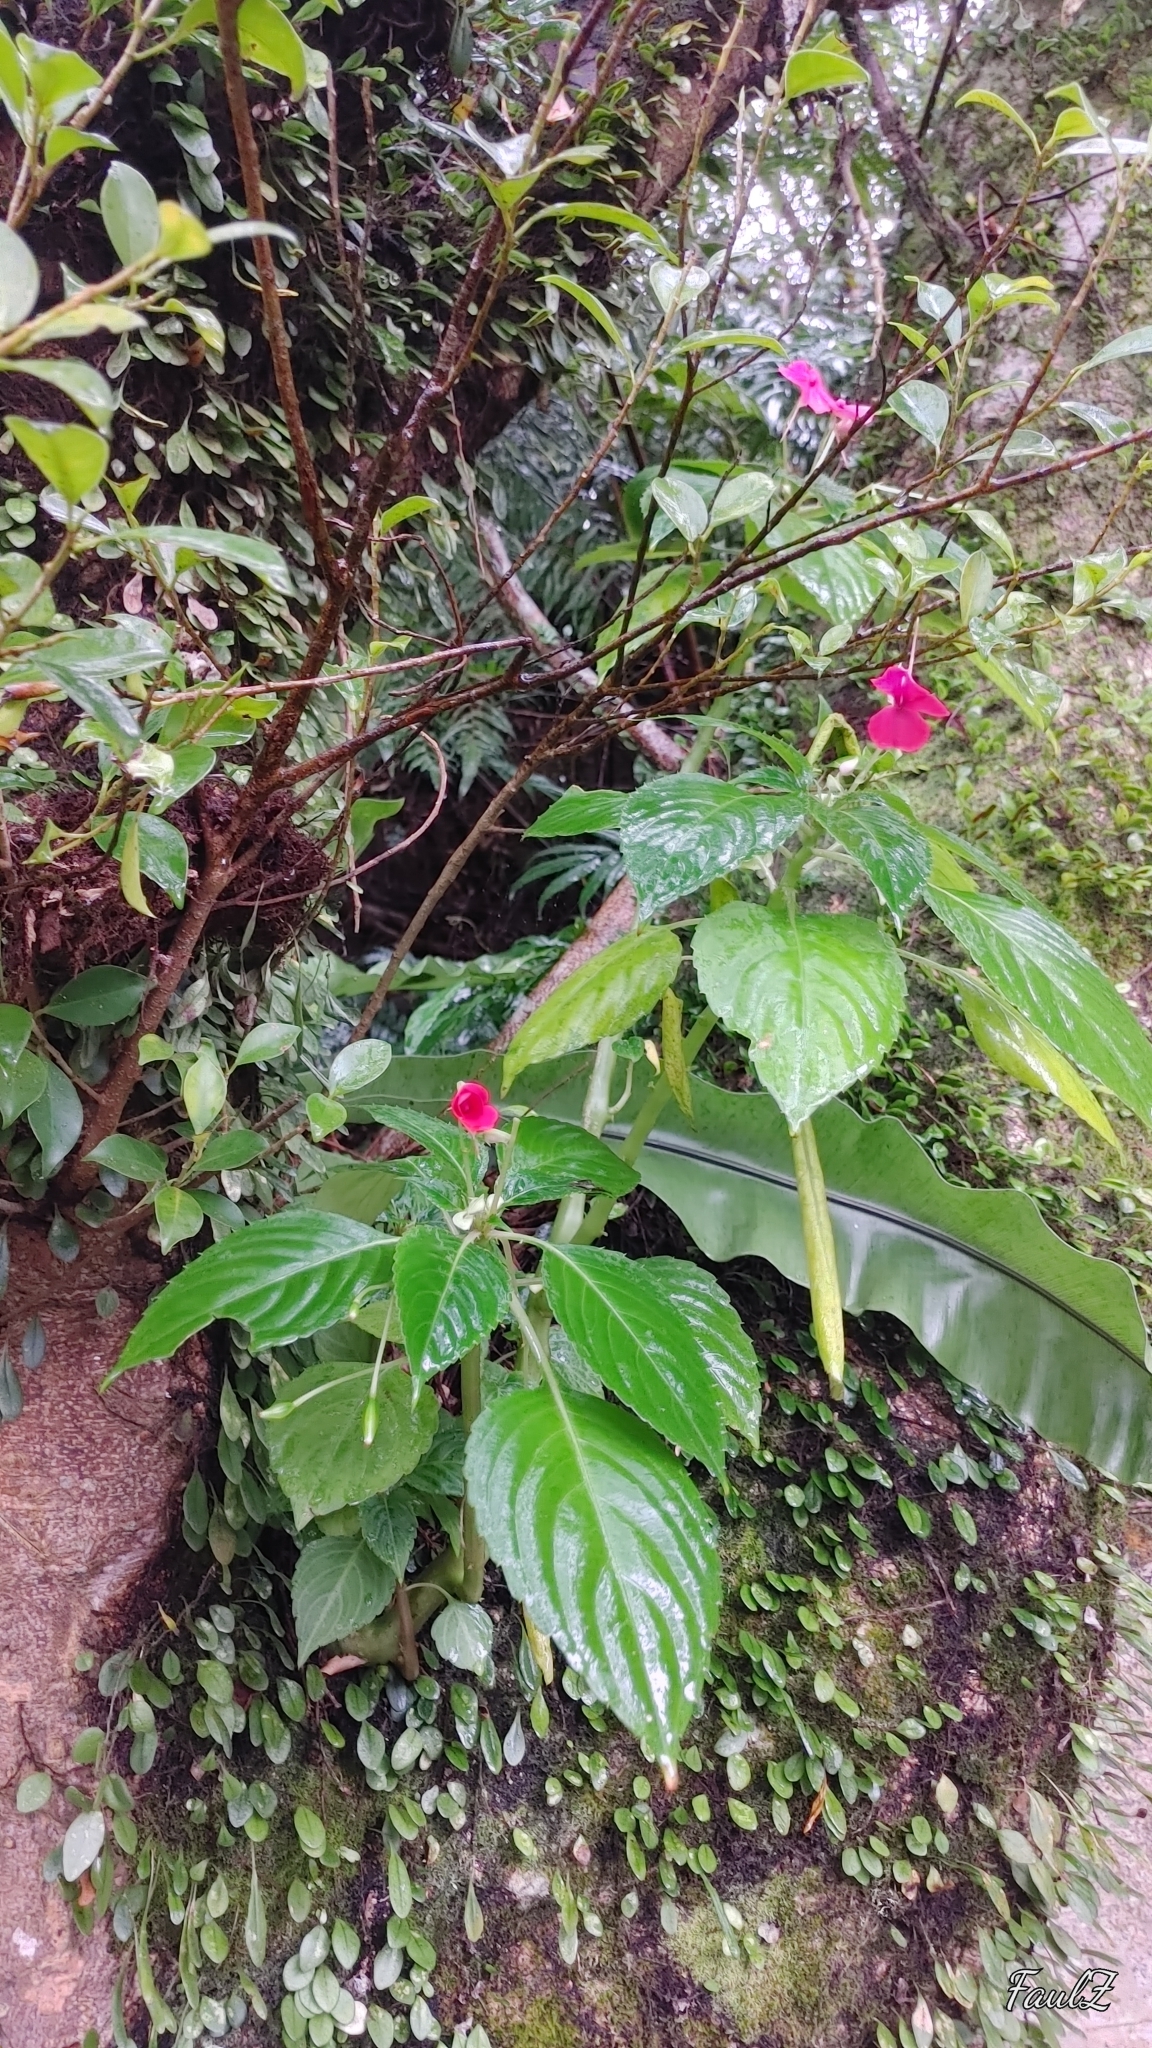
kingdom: Plantae
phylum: Tracheophyta
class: Magnoliopsida
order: Ericales
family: Balsaminaceae
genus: Impatiens
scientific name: Impatiens walleriana
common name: Buzzy lizzy
